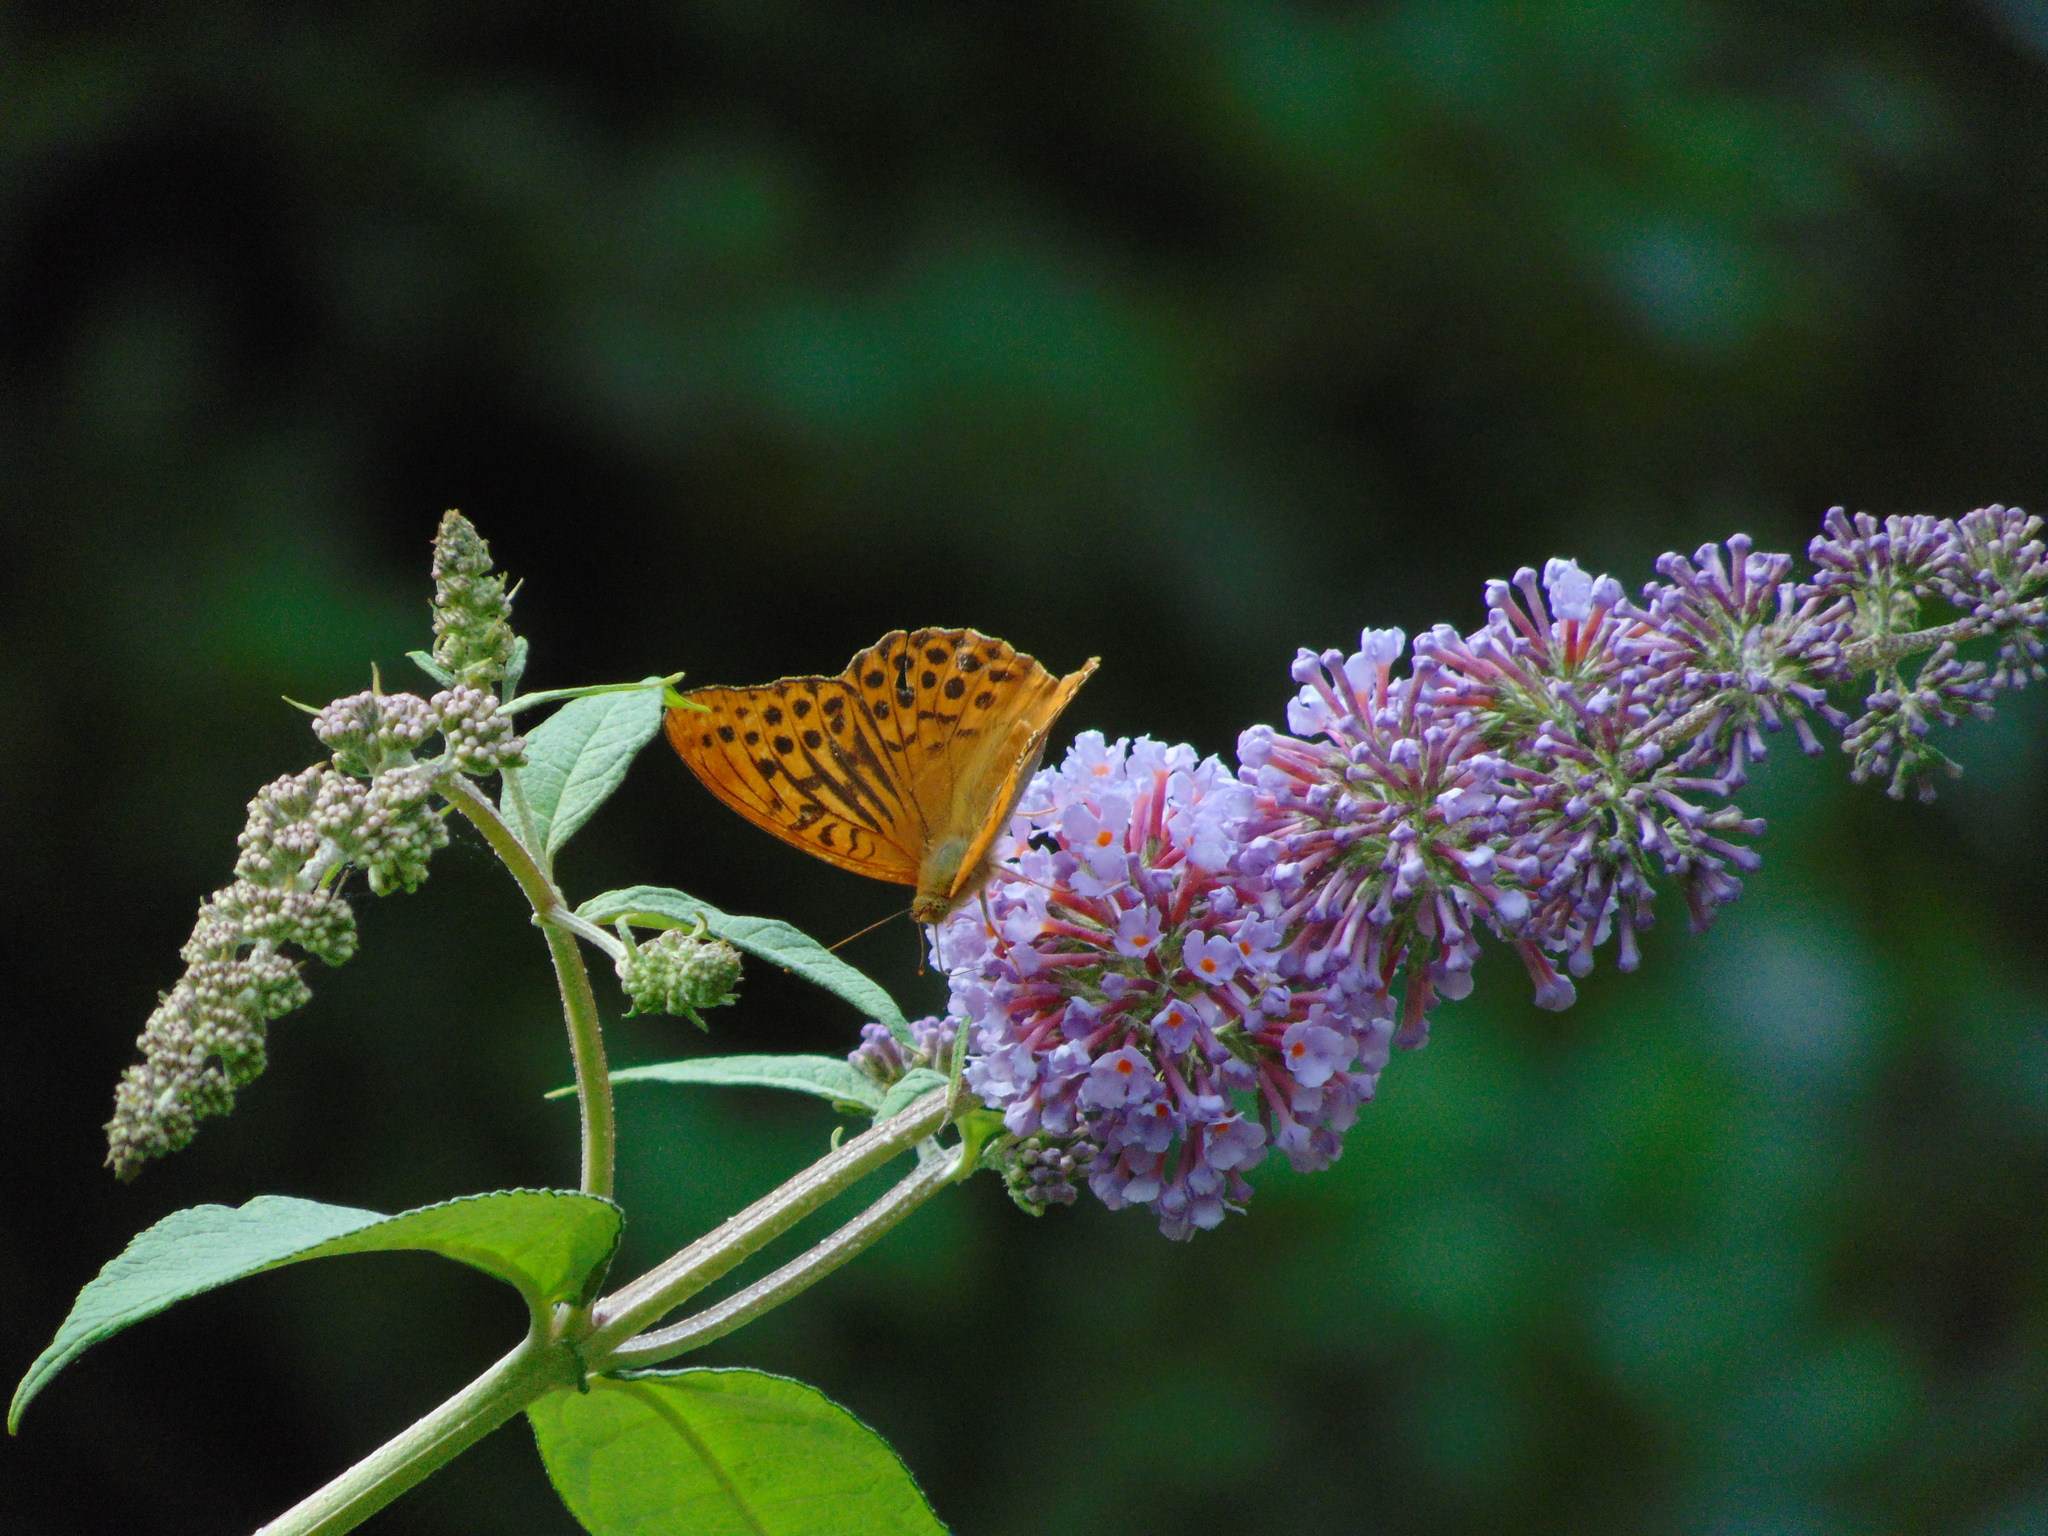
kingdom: Animalia
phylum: Arthropoda
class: Insecta
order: Lepidoptera
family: Nymphalidae
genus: Argynnis
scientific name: Argynnis paphia
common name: Silver-washed fritillary
